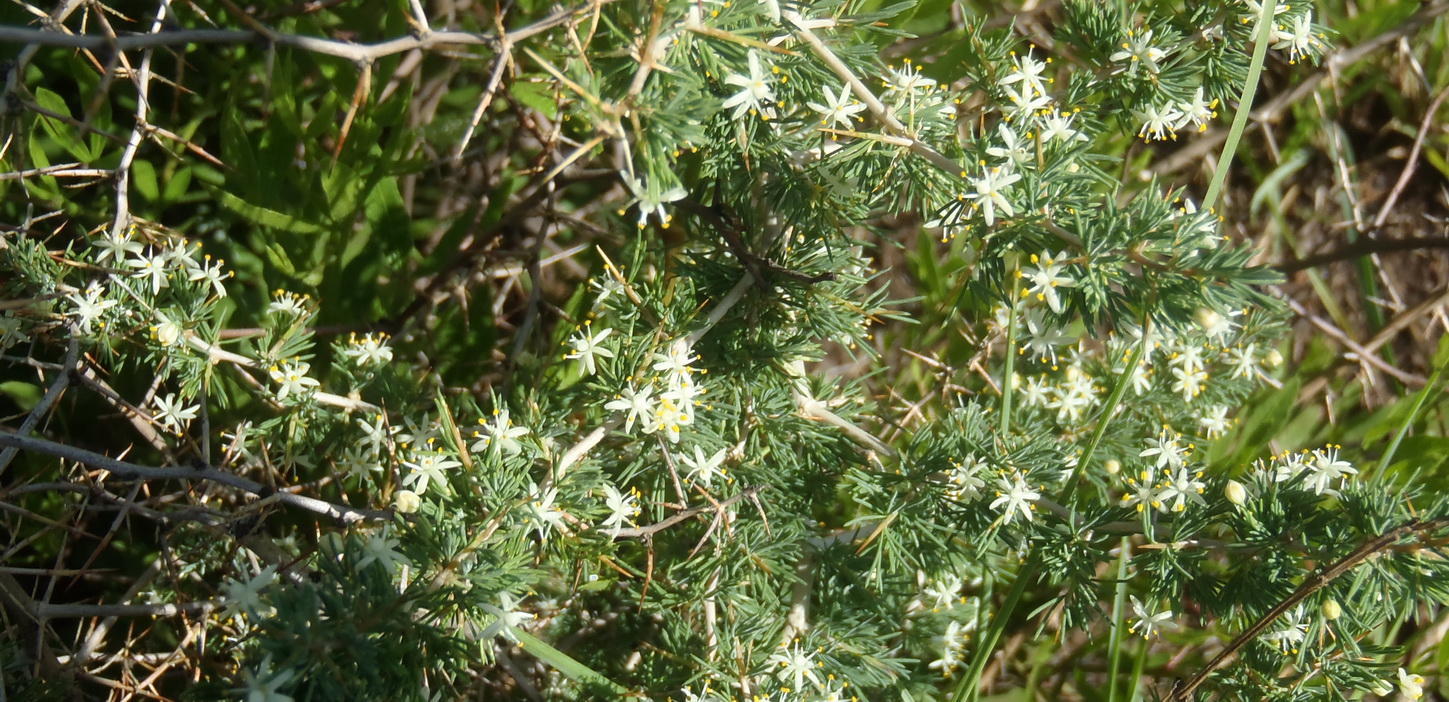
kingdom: Plantae
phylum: Tracheophyta
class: Liliopsida
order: Asparagales
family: Asparagaceae
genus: Asparagus
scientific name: Asparagus suaveolens
